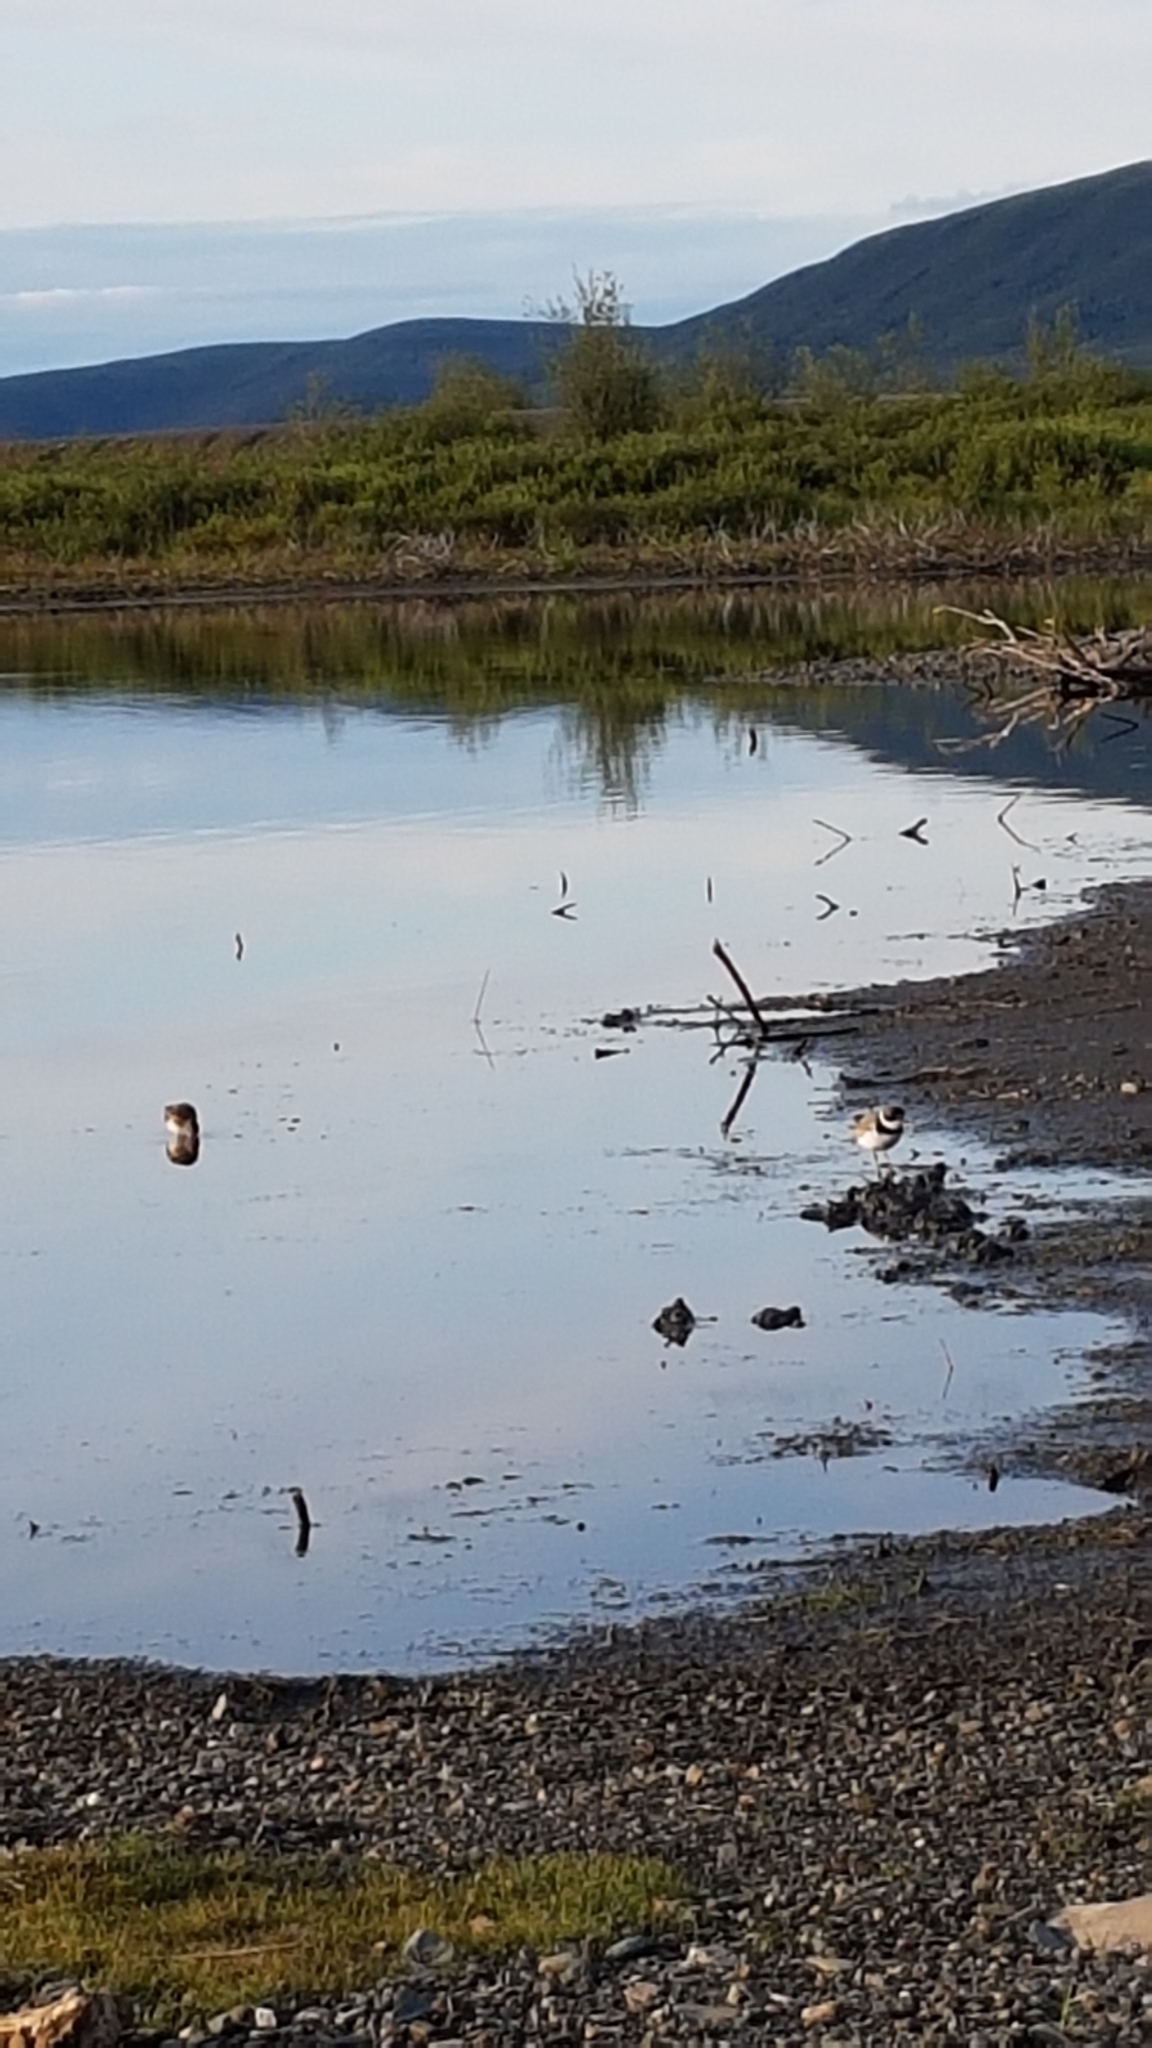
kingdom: Animalia
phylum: Chordata
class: Aves
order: Charadriiformes
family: Charadriidae
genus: Charadrius
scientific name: Charadrius semipalmatus
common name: Semipalmated plover
